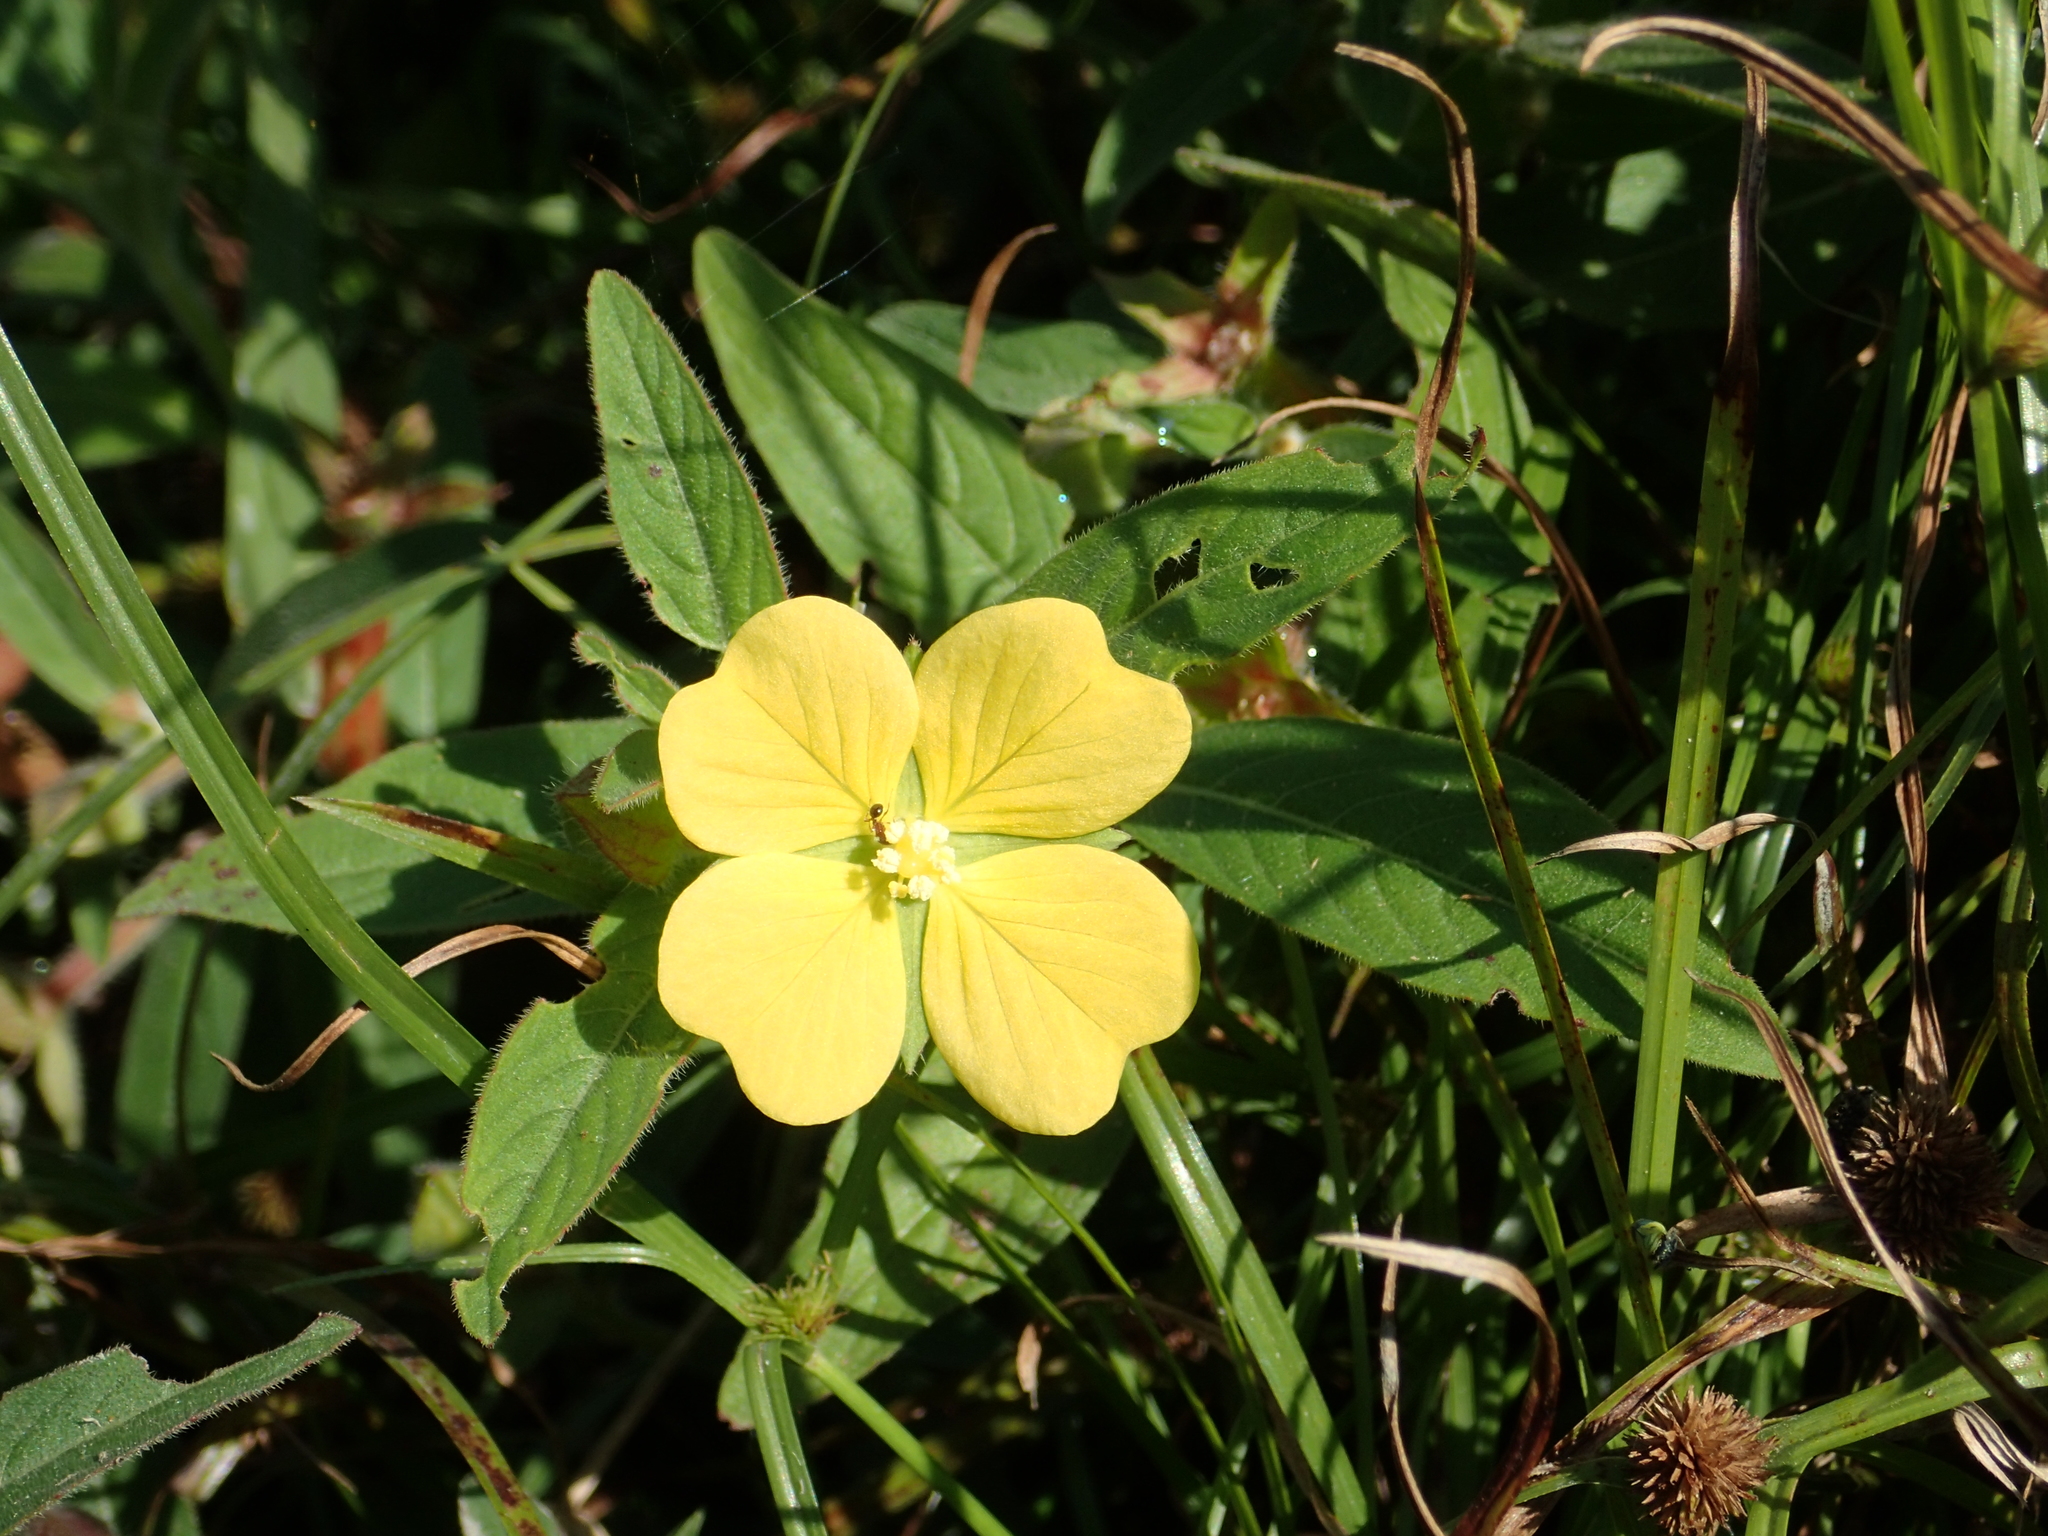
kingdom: Plantae
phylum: Tracheophyta
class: Magnoliopsida
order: Myrtales
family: Onagraceae
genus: Ludwigia
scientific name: Ludwigia octovalvis
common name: Water-primrose
